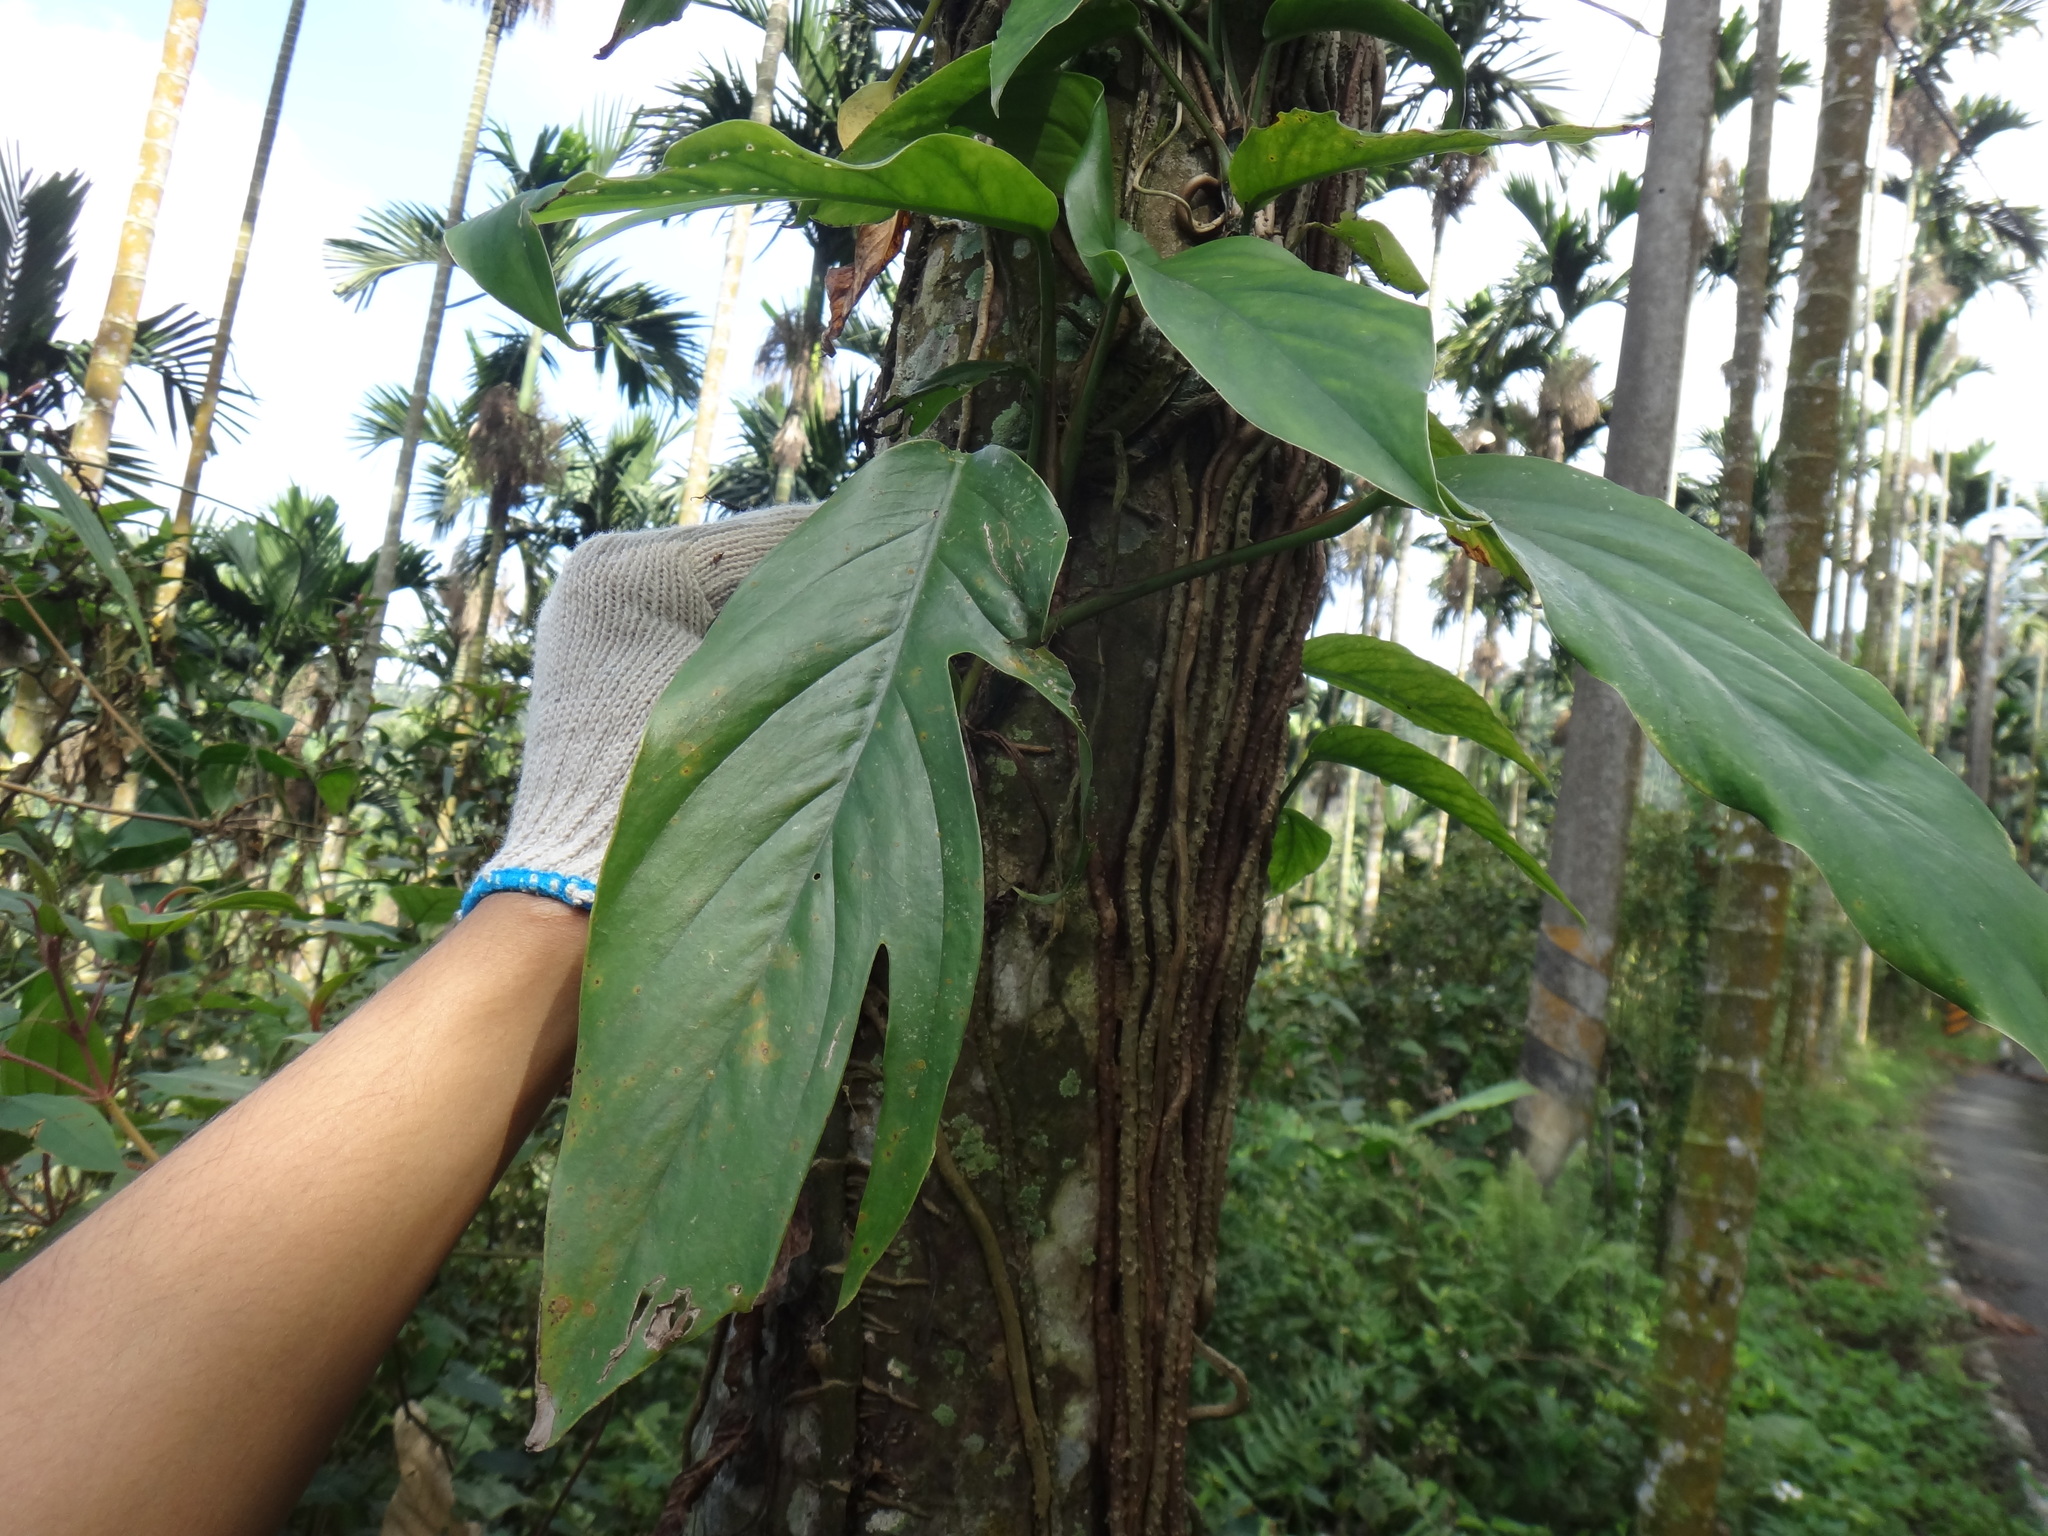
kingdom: Plantae
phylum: Tracheophyta
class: Liliopsida
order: Alismatales
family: Araceae
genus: Epipremnum
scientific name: Epipremnum pinnatum
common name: Centipede tongavine
